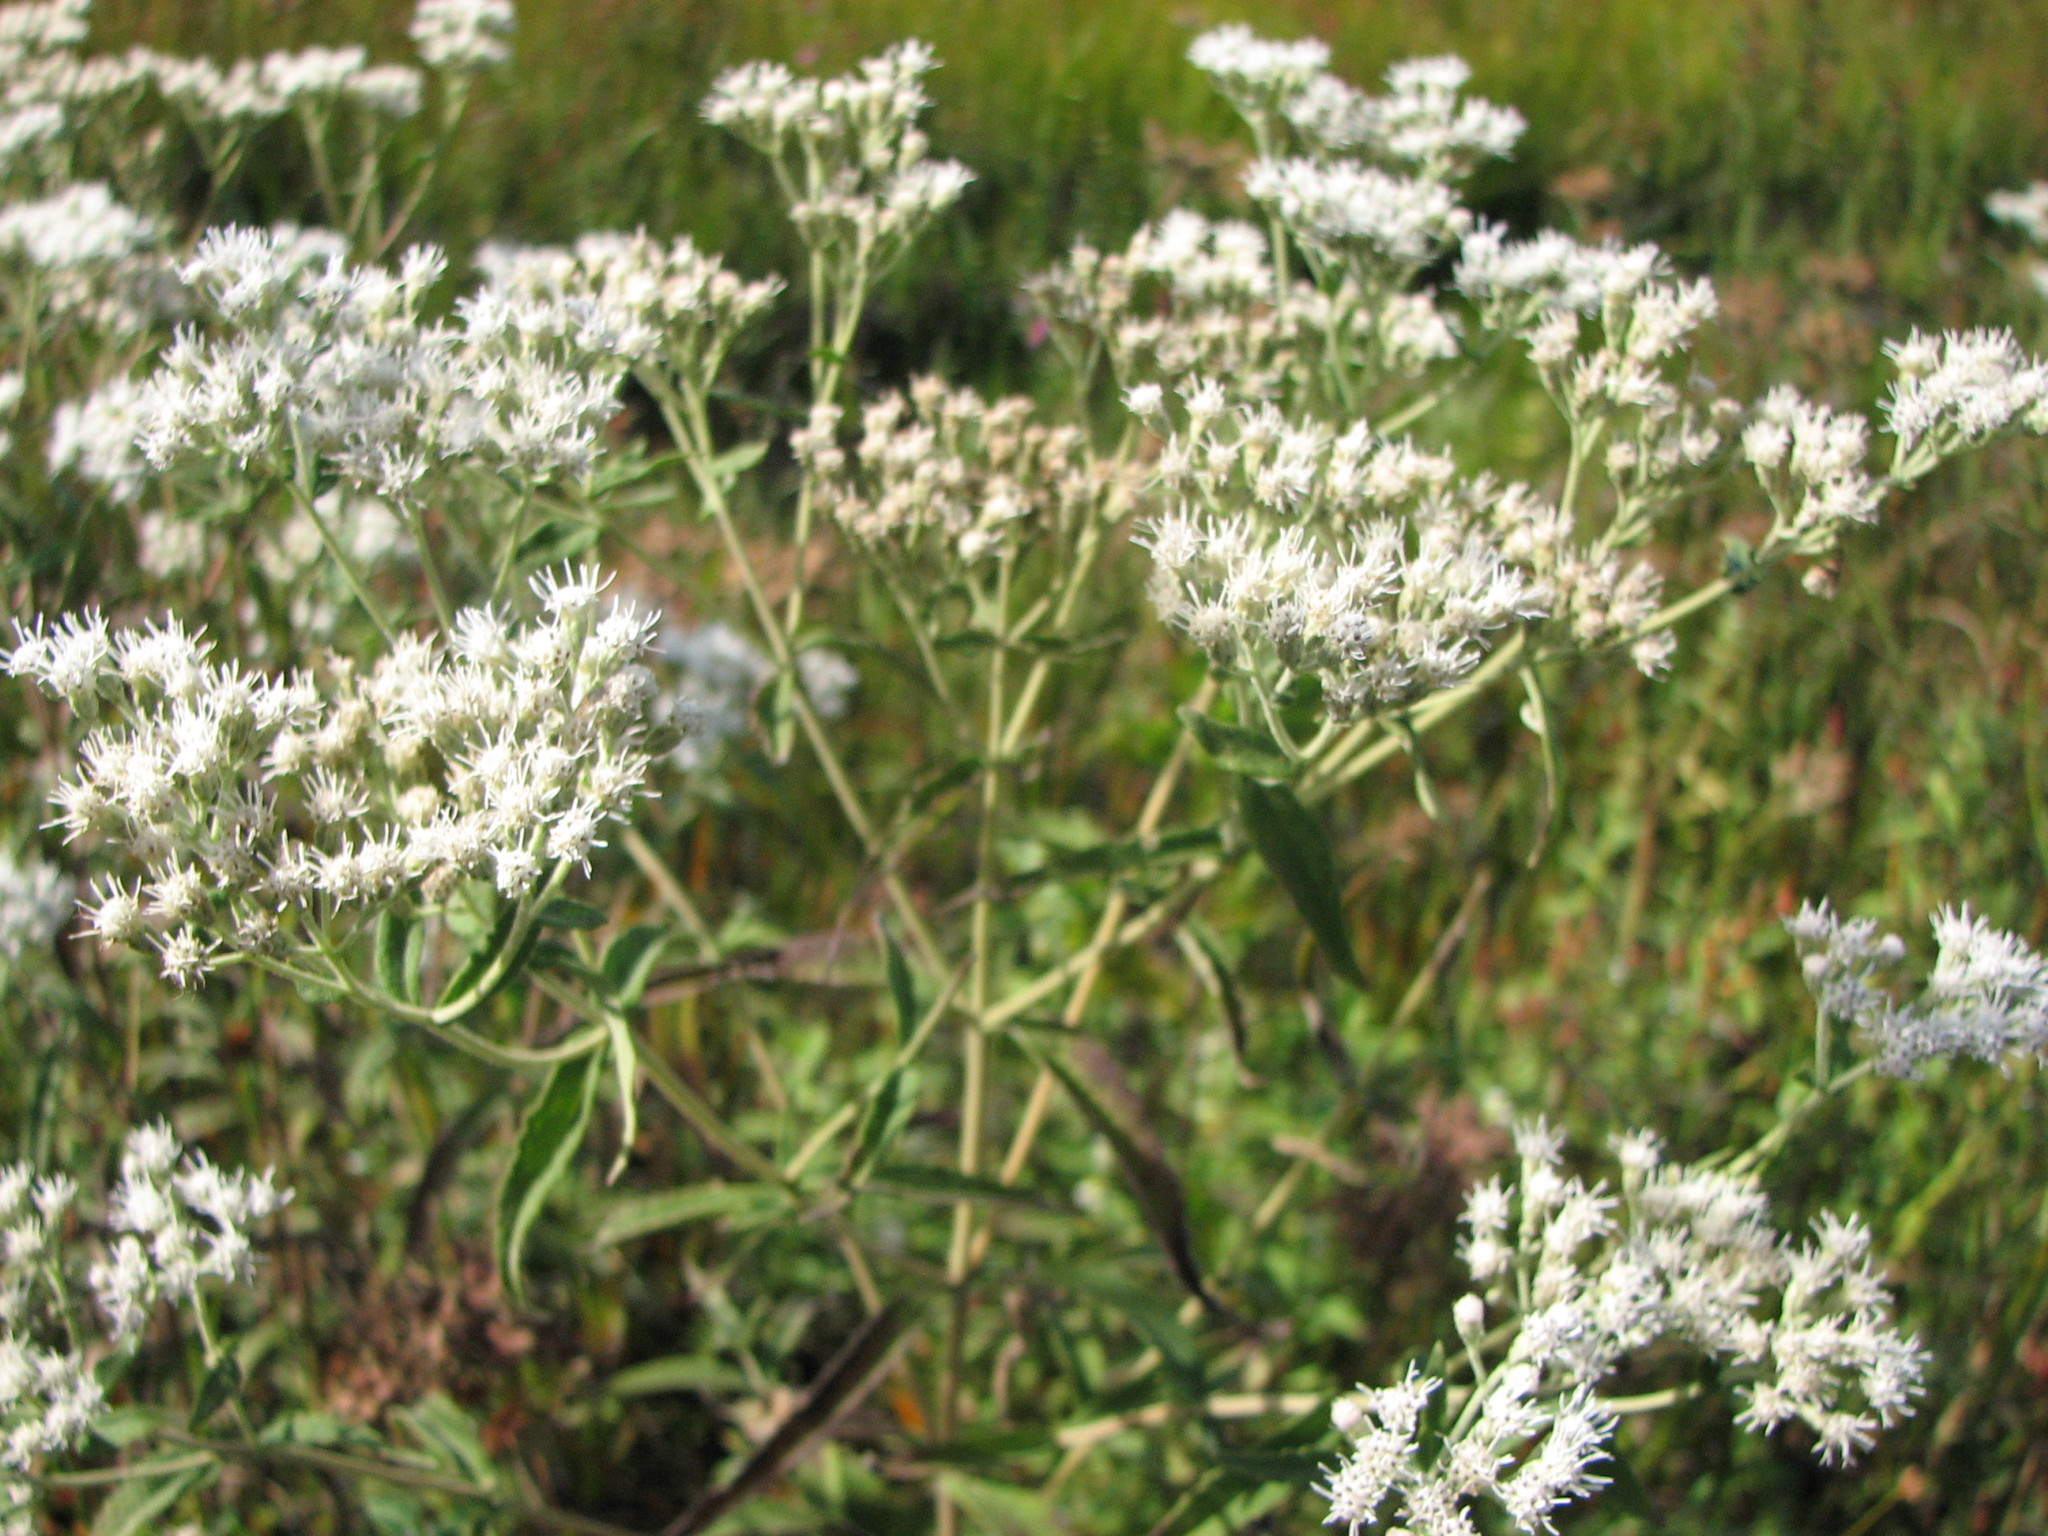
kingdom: Plantae
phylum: Tracheophyta
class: Magnoliopsida
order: Asterales
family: Asteraceae
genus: Eupatorium
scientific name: Eupatorium resinosum
